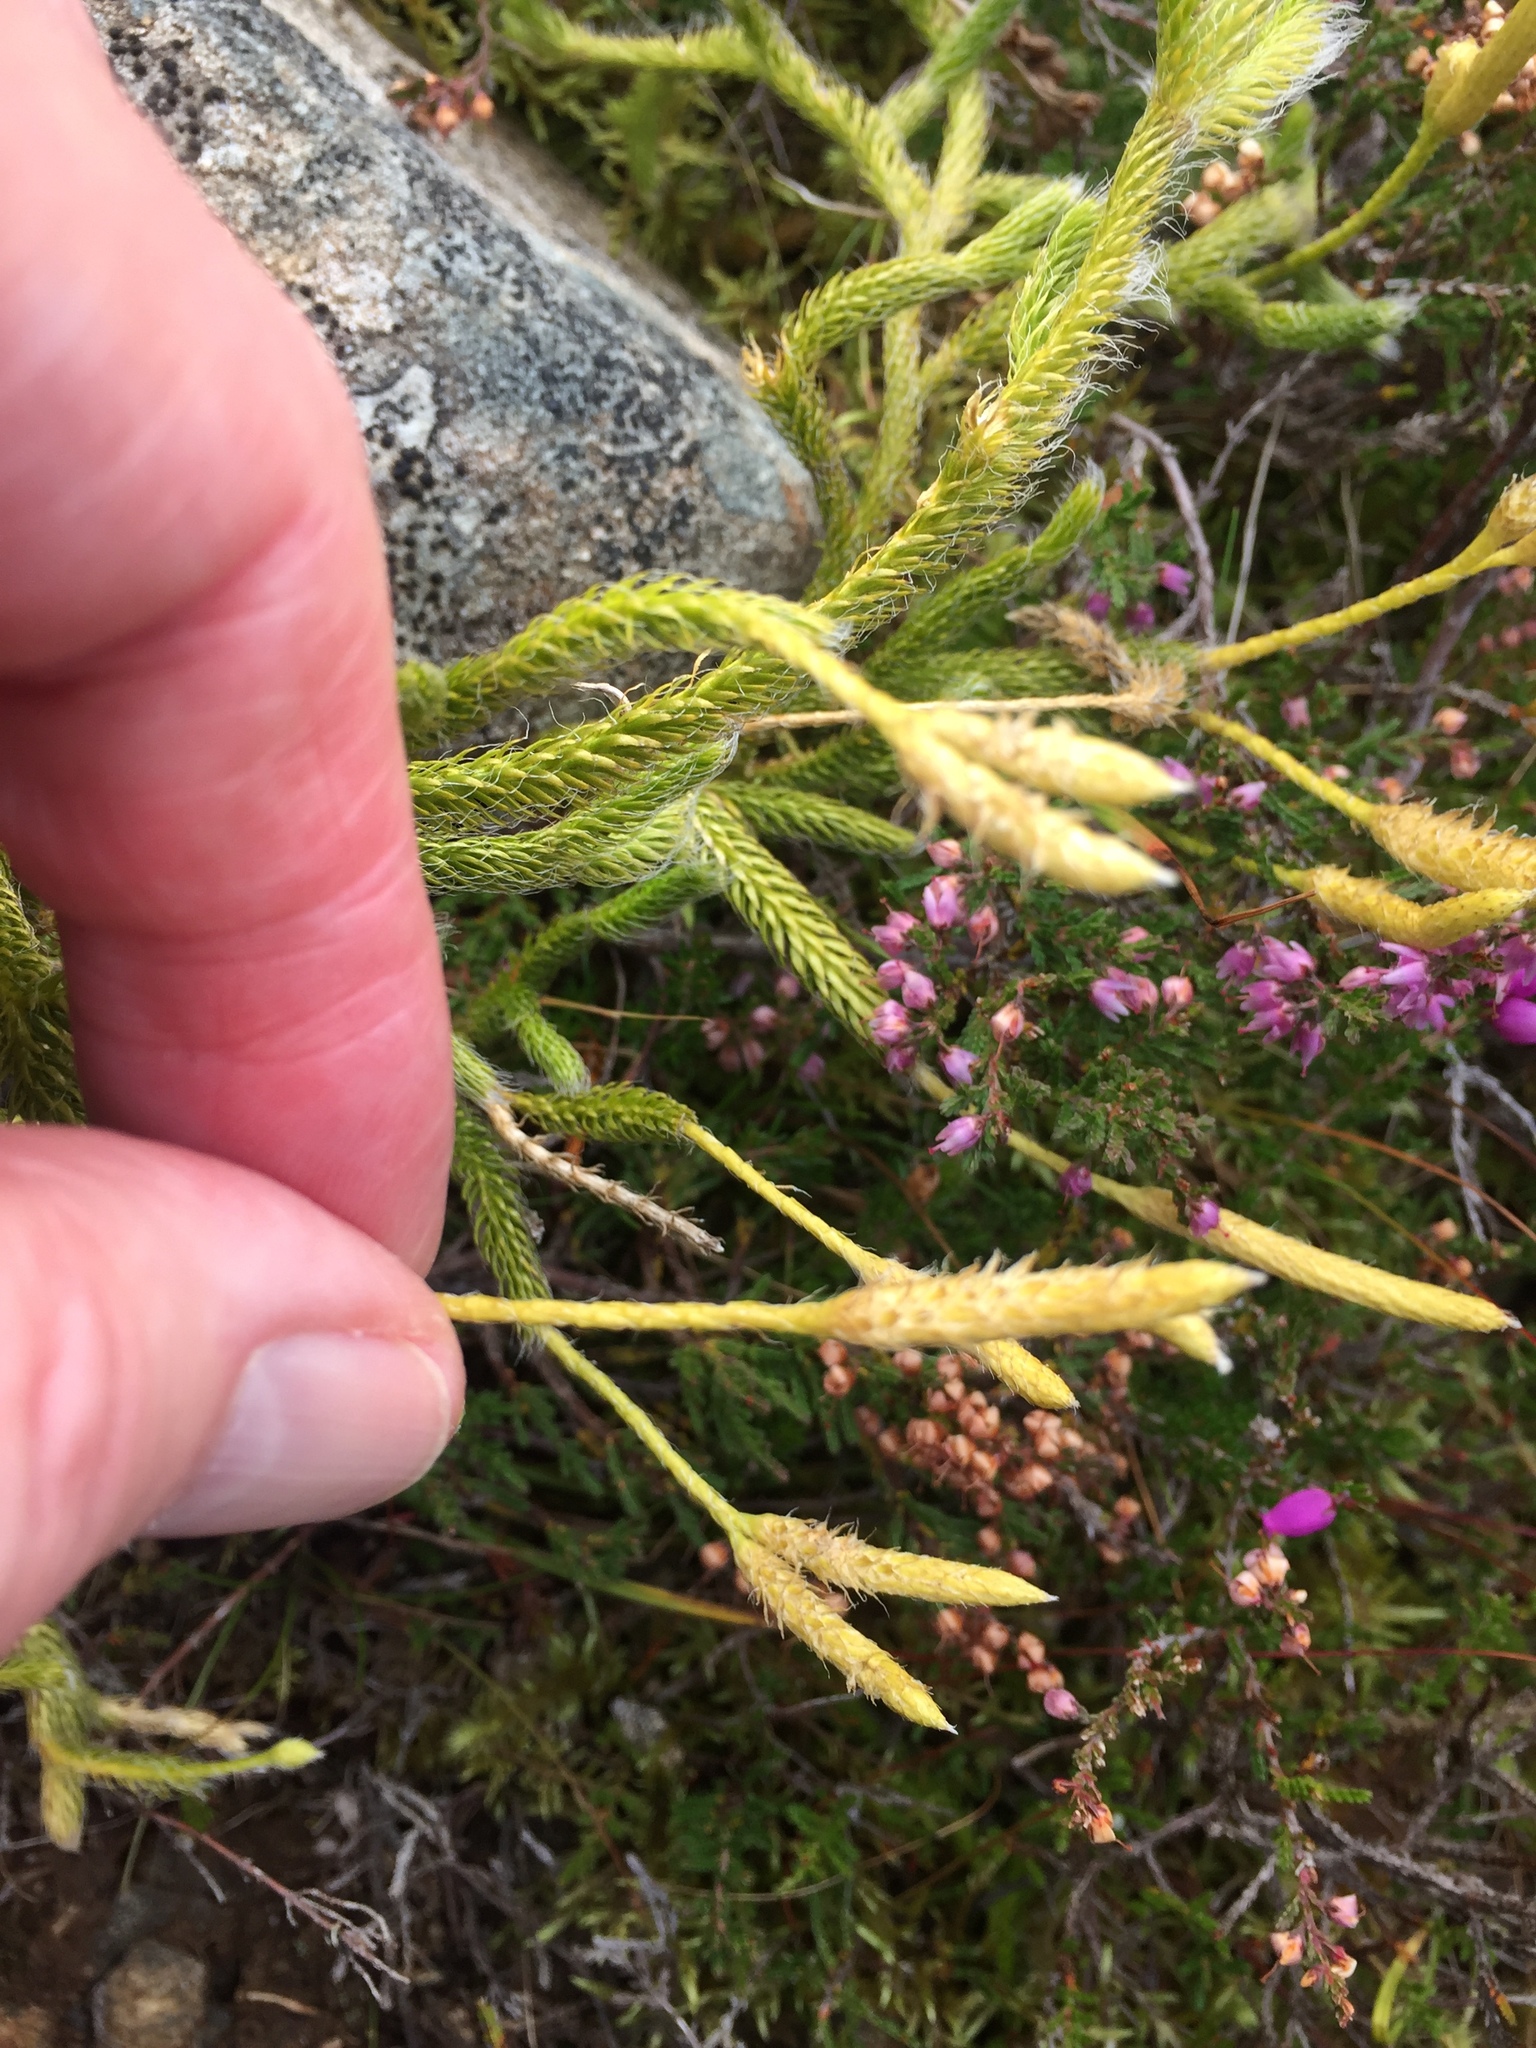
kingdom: Plantae
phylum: Tracheophyta
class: Lycopodiopsida
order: Lycopodiales
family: Lycopodiaceae
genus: Lycopodium
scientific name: Lycopodium clavatum
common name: Stag's-horn clubmoss
